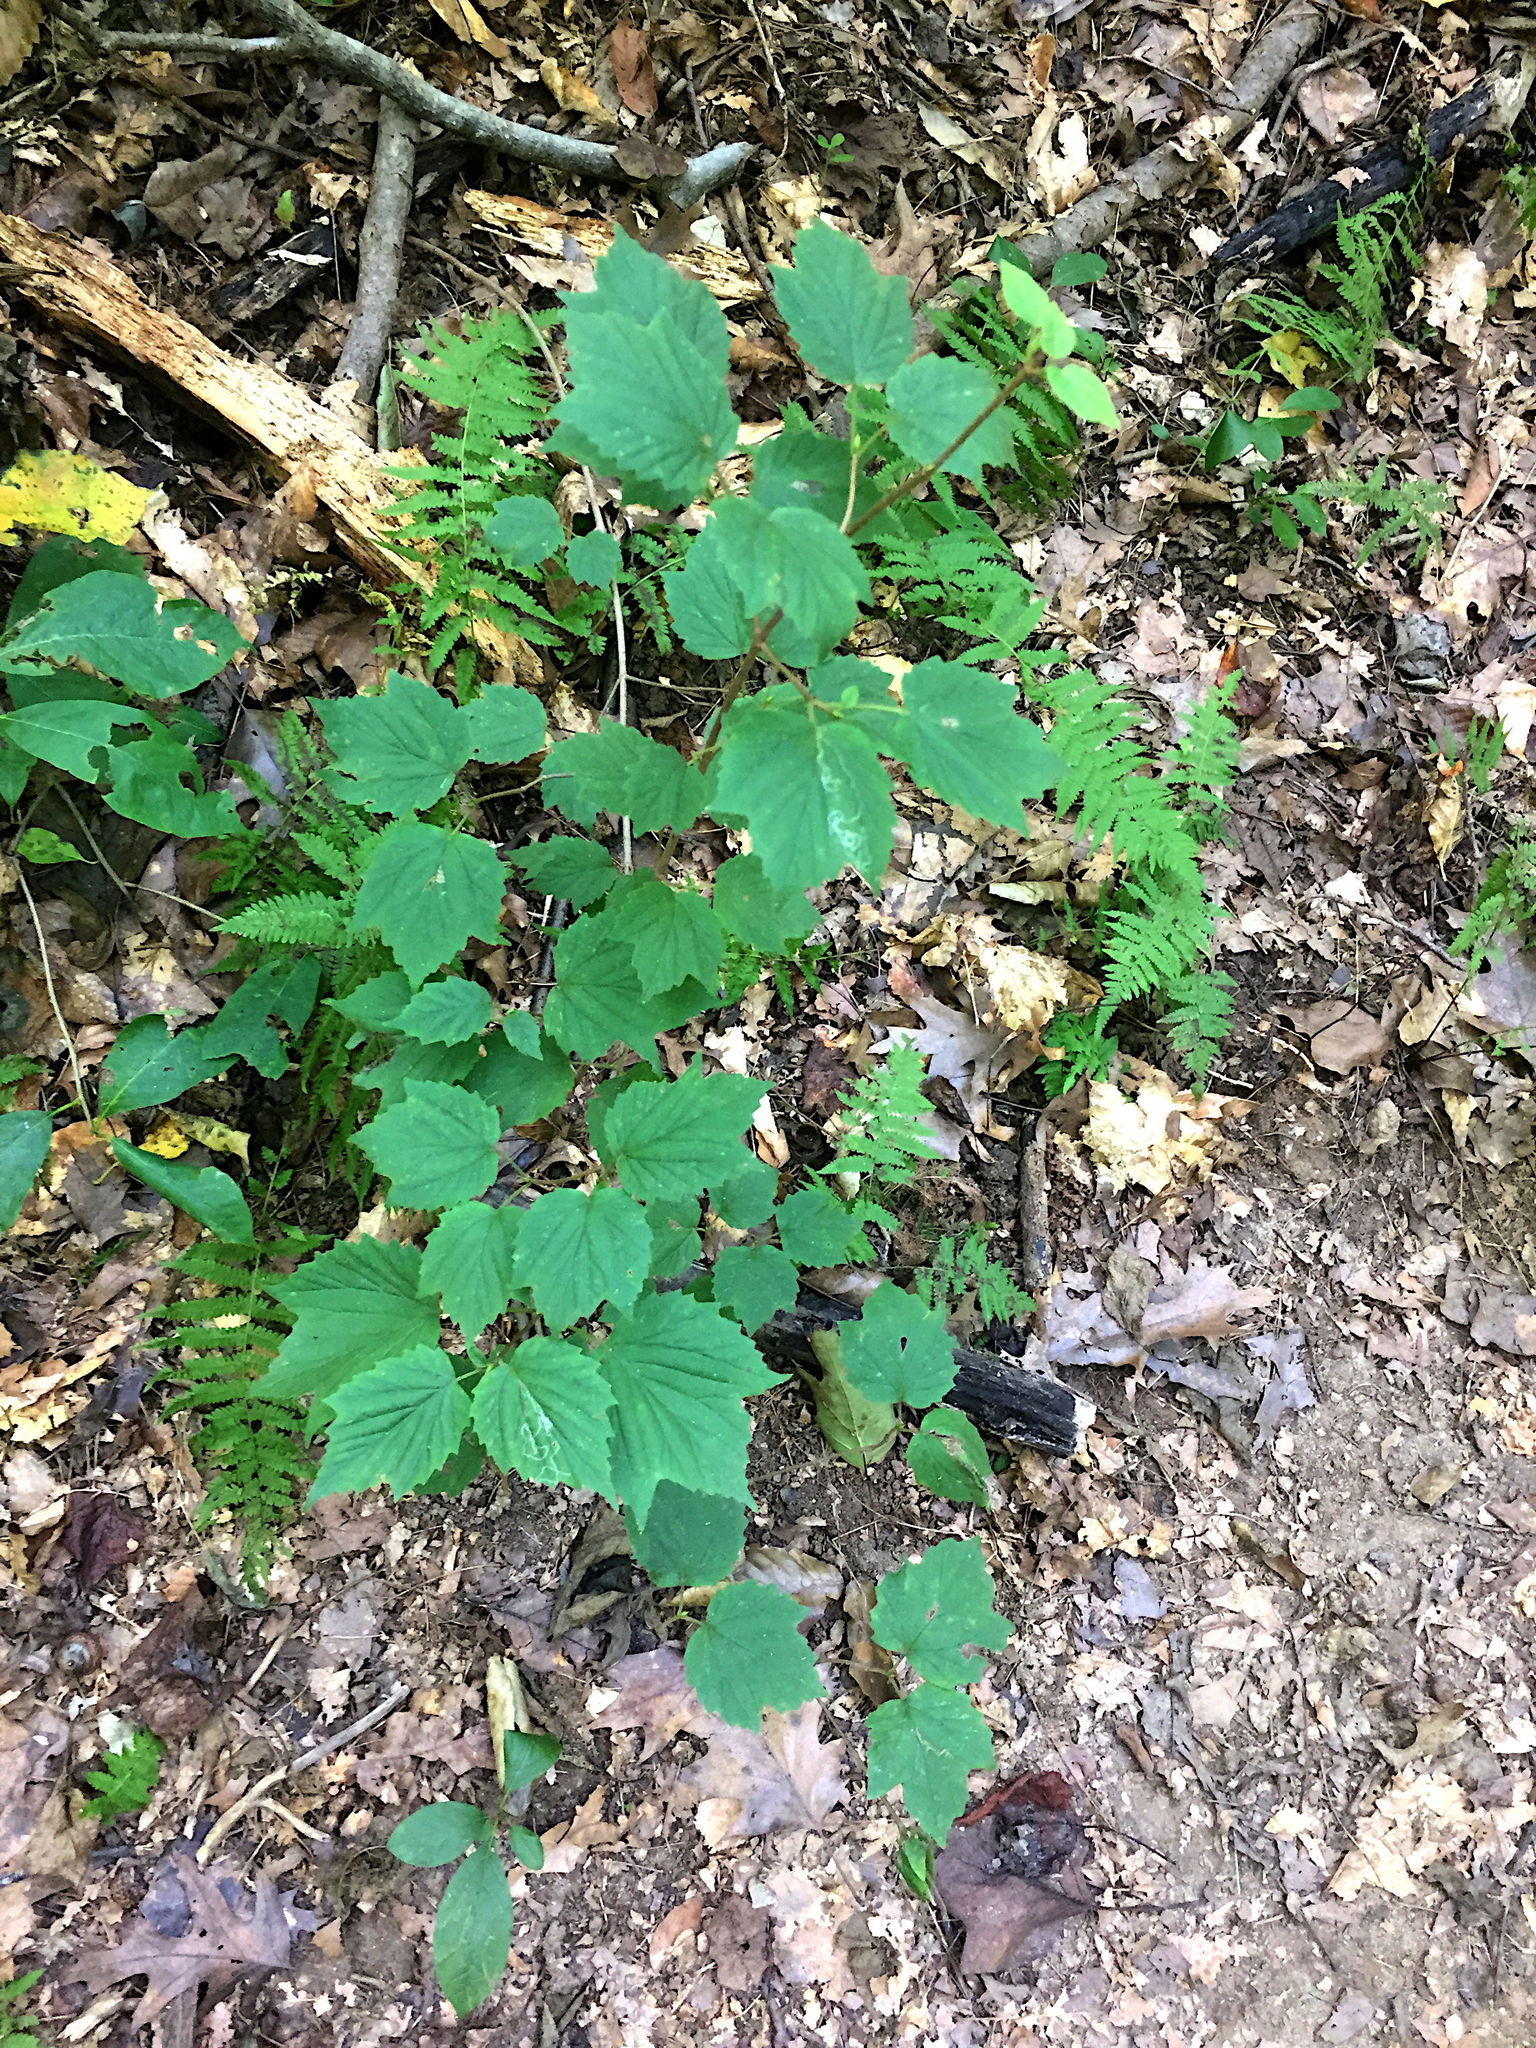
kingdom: Plantae
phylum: Tracheophyta
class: Magnoliopsida
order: Dipsacales
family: Viburnaceae
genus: Viburnum
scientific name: Viburnum acerifolium
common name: Dockmackie
